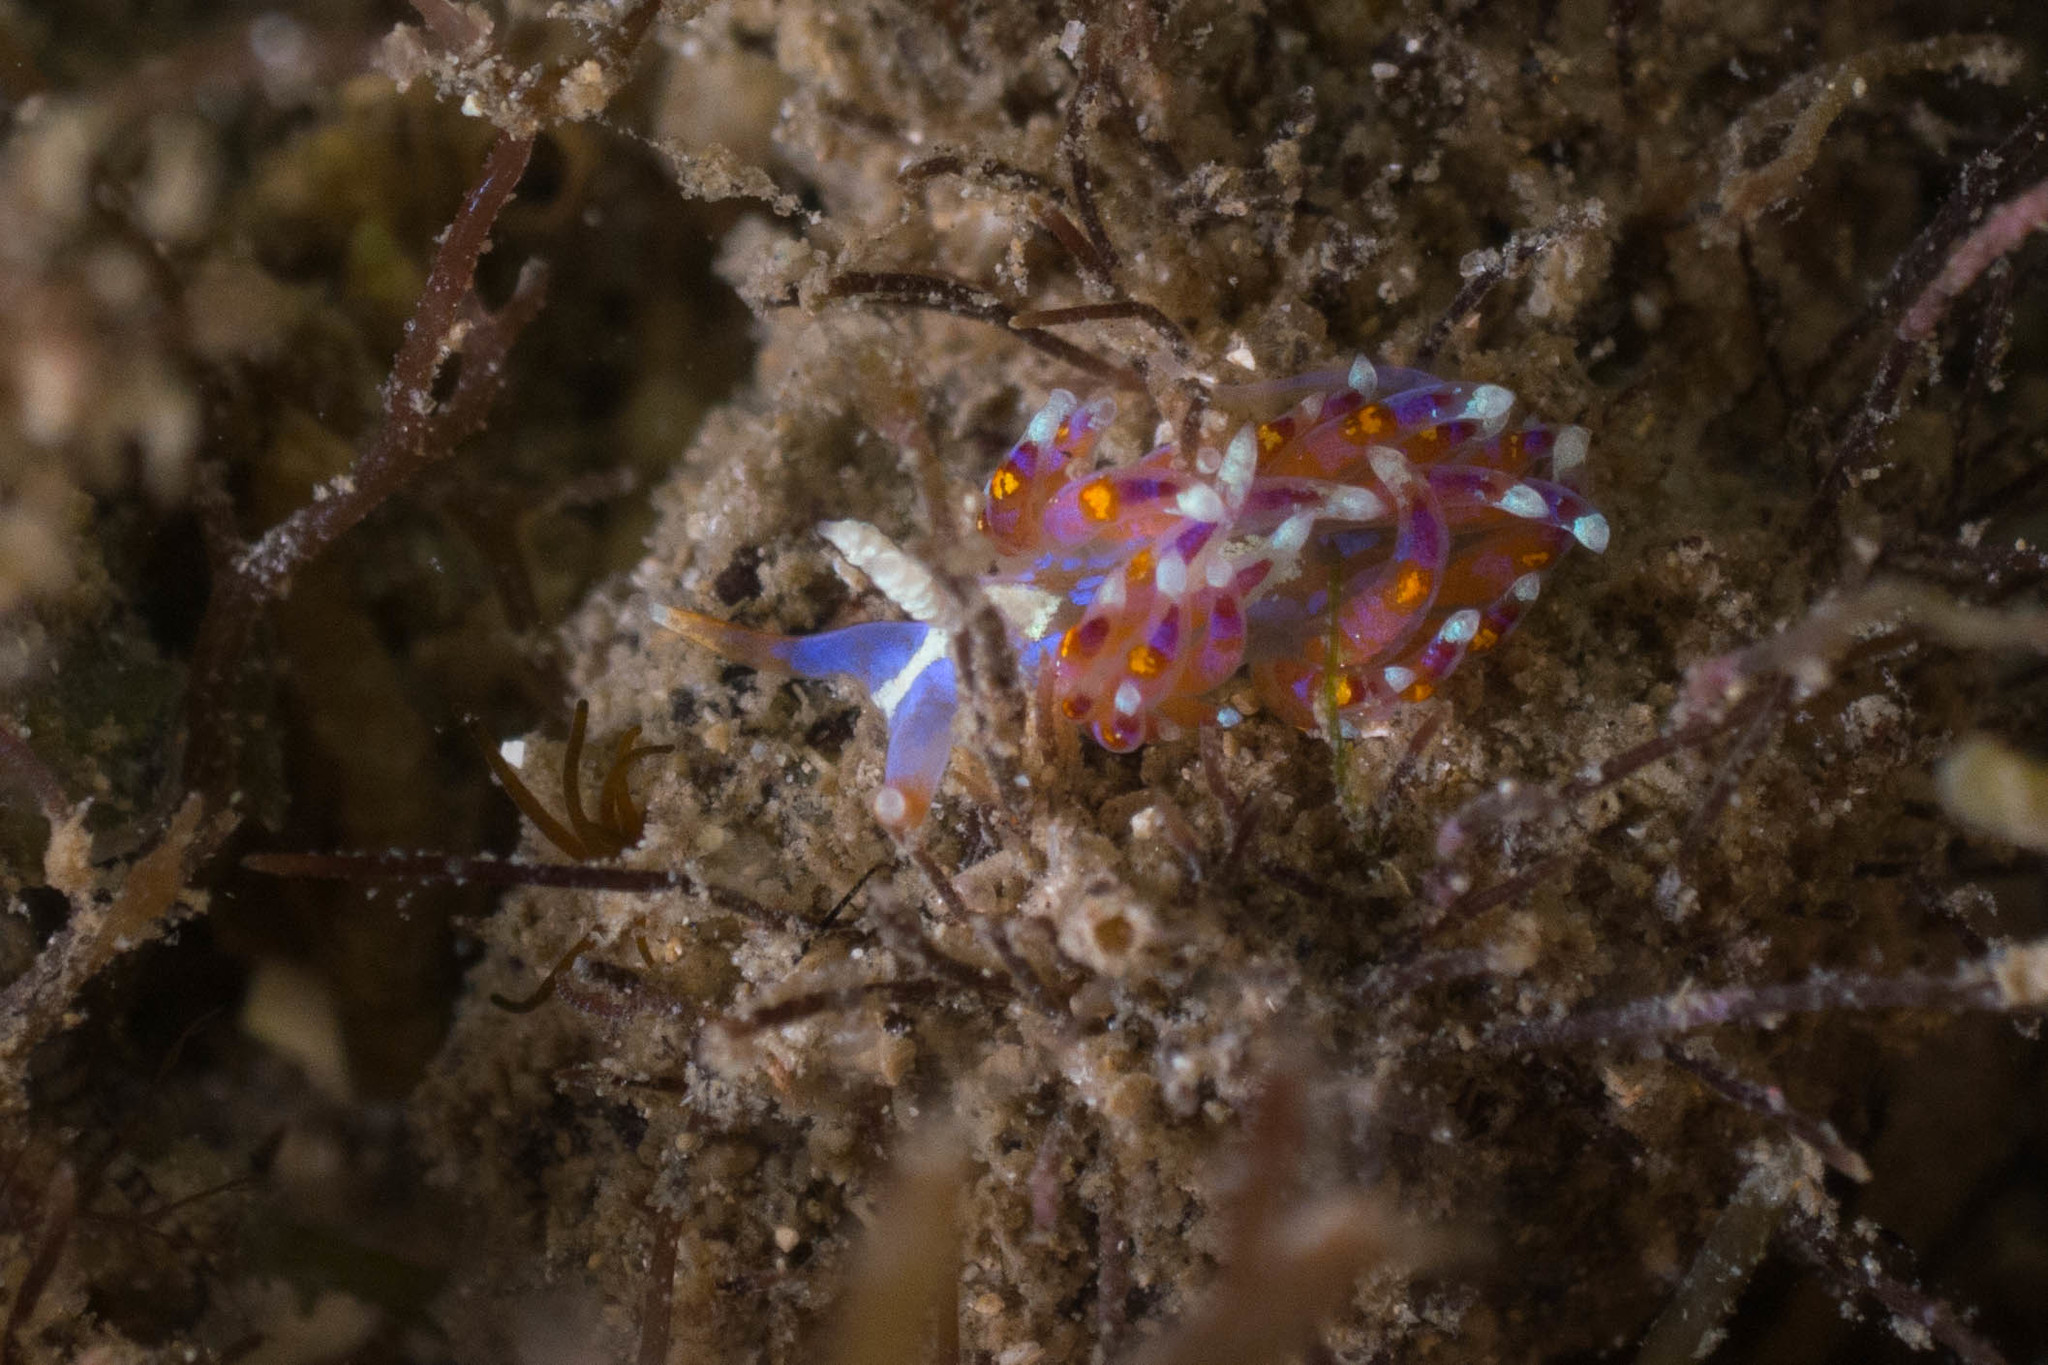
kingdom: Animalia
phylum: Mollusca
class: Gastropoda
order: Nudibranchia
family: Facelinidae
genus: Austraeolis
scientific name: Austraeolis ornata
